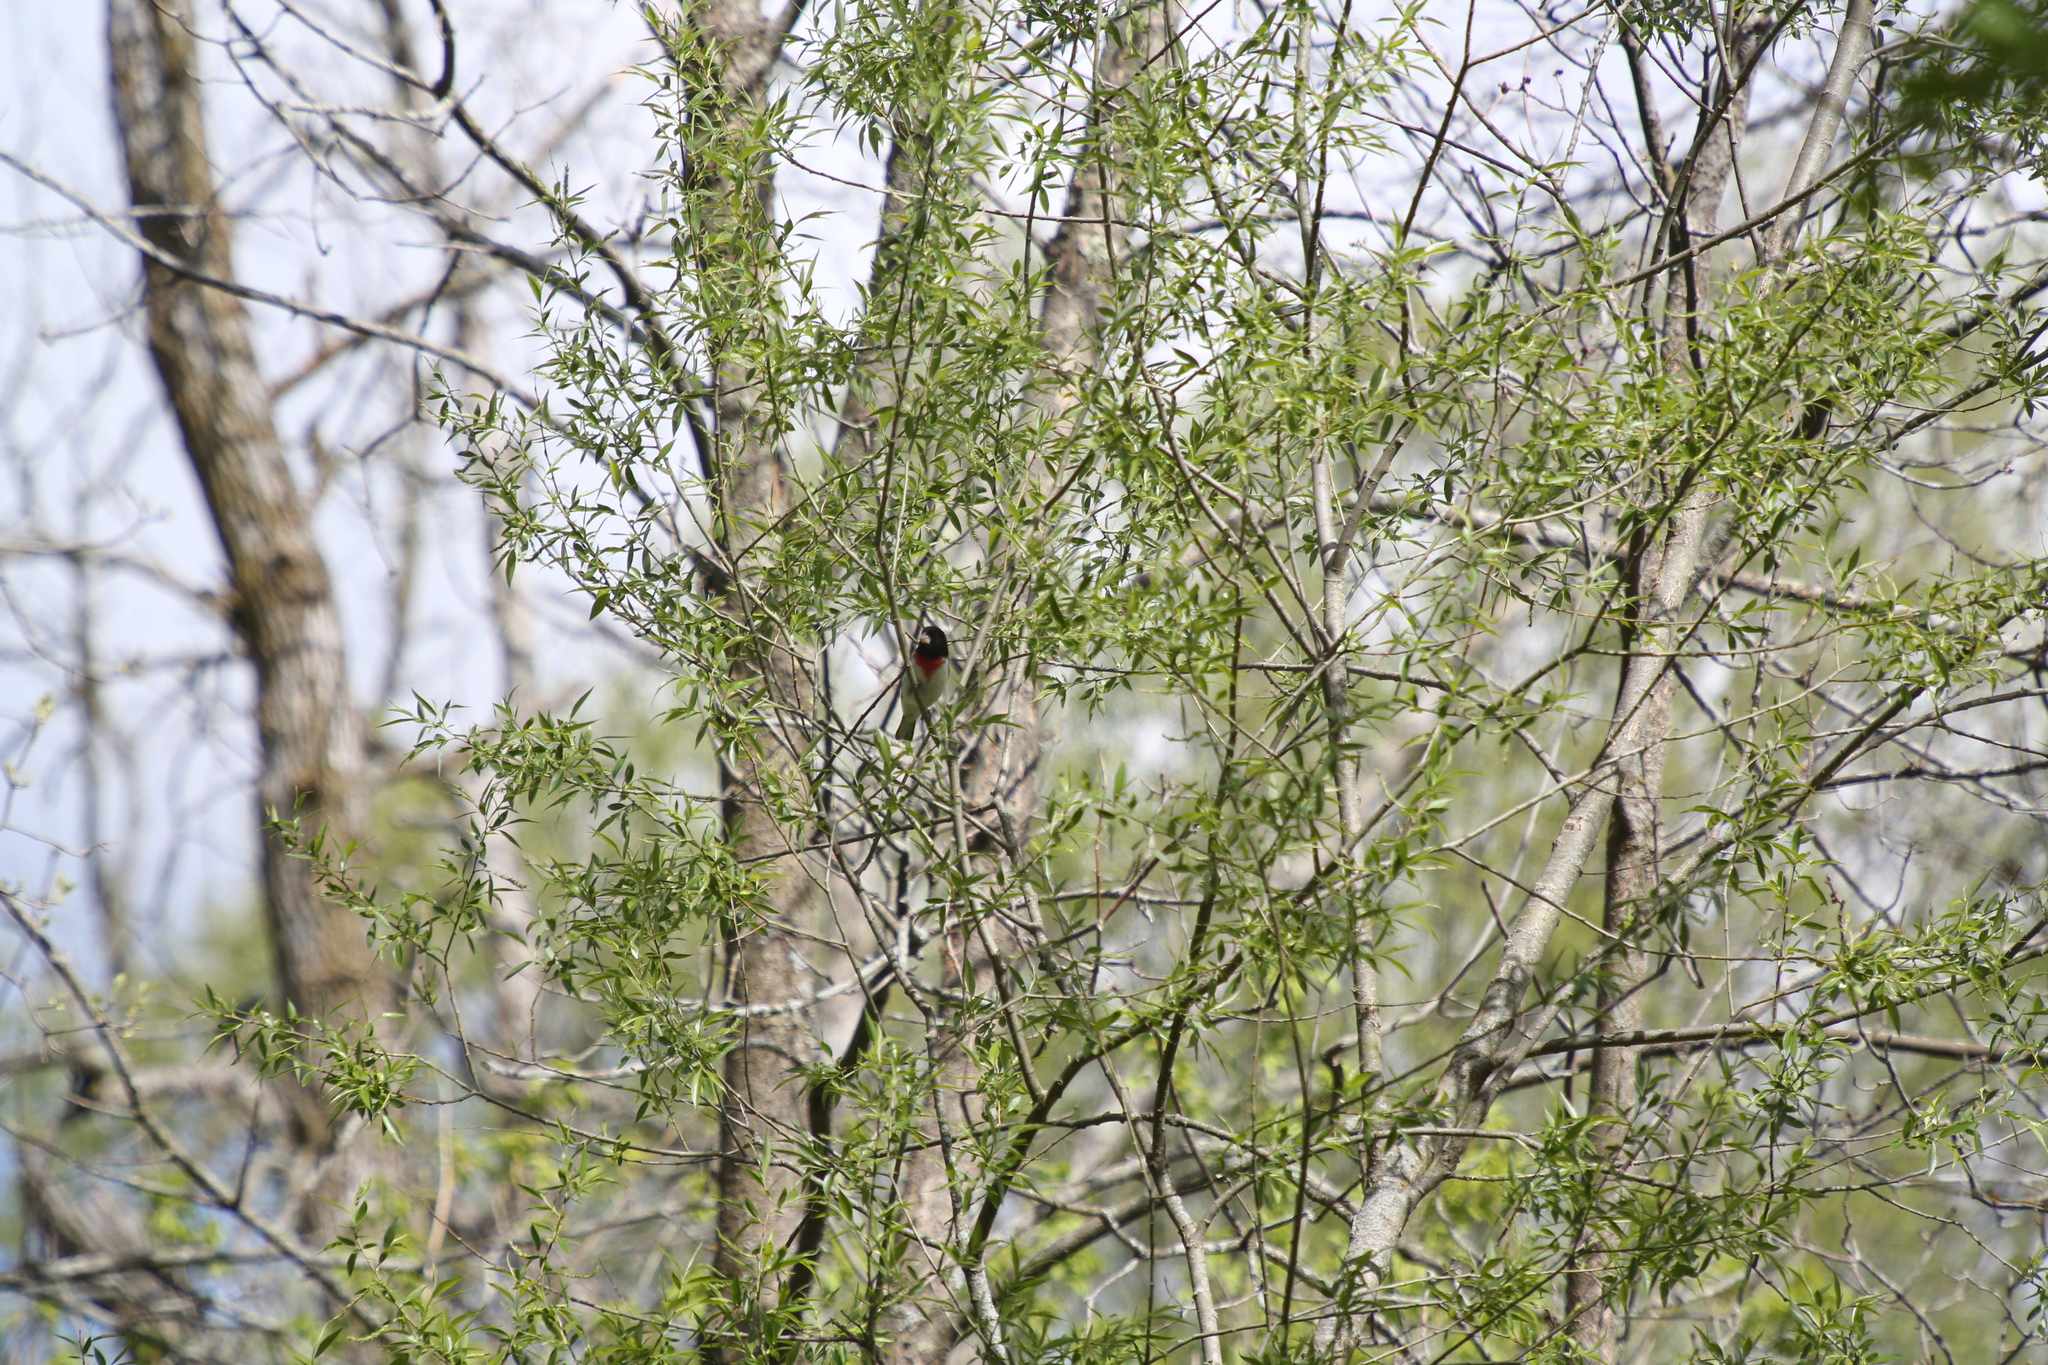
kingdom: Animalia
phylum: Chordata
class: Aves
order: Passeriformes
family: Cardinalidae
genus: Pheucticus
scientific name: Pheucticus ludovicianus
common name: Rose-breasted grosbeak
